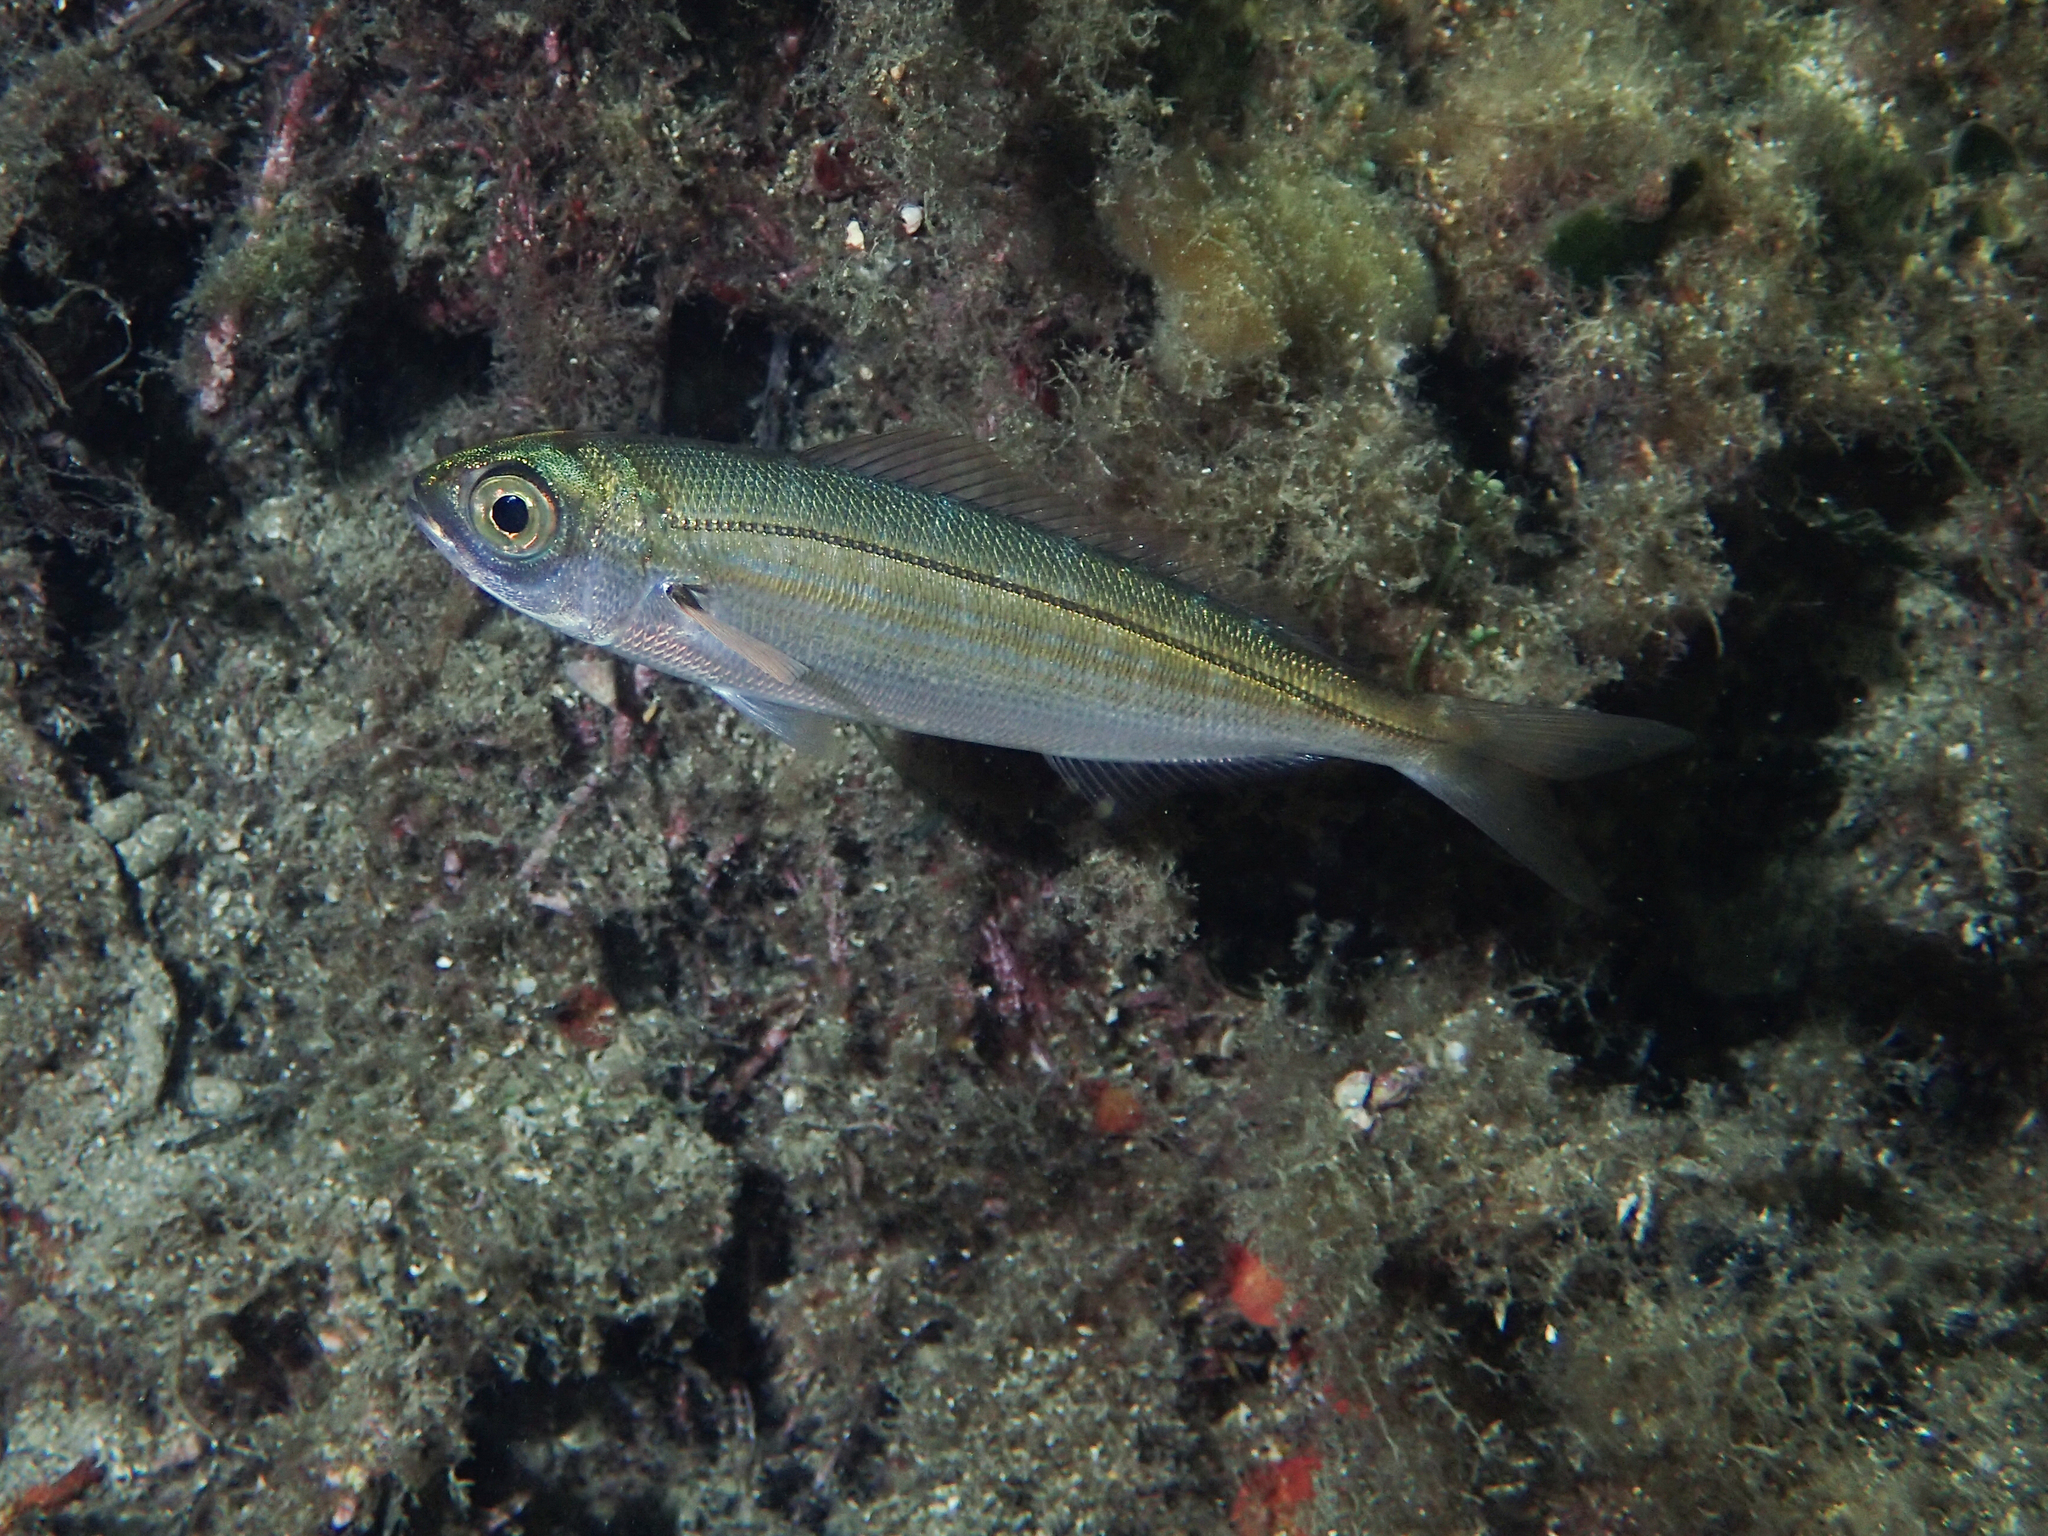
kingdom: Animalia
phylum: Chordata
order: Perciformes
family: Sparidae
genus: Boops
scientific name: Boops boops
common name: Bogue
